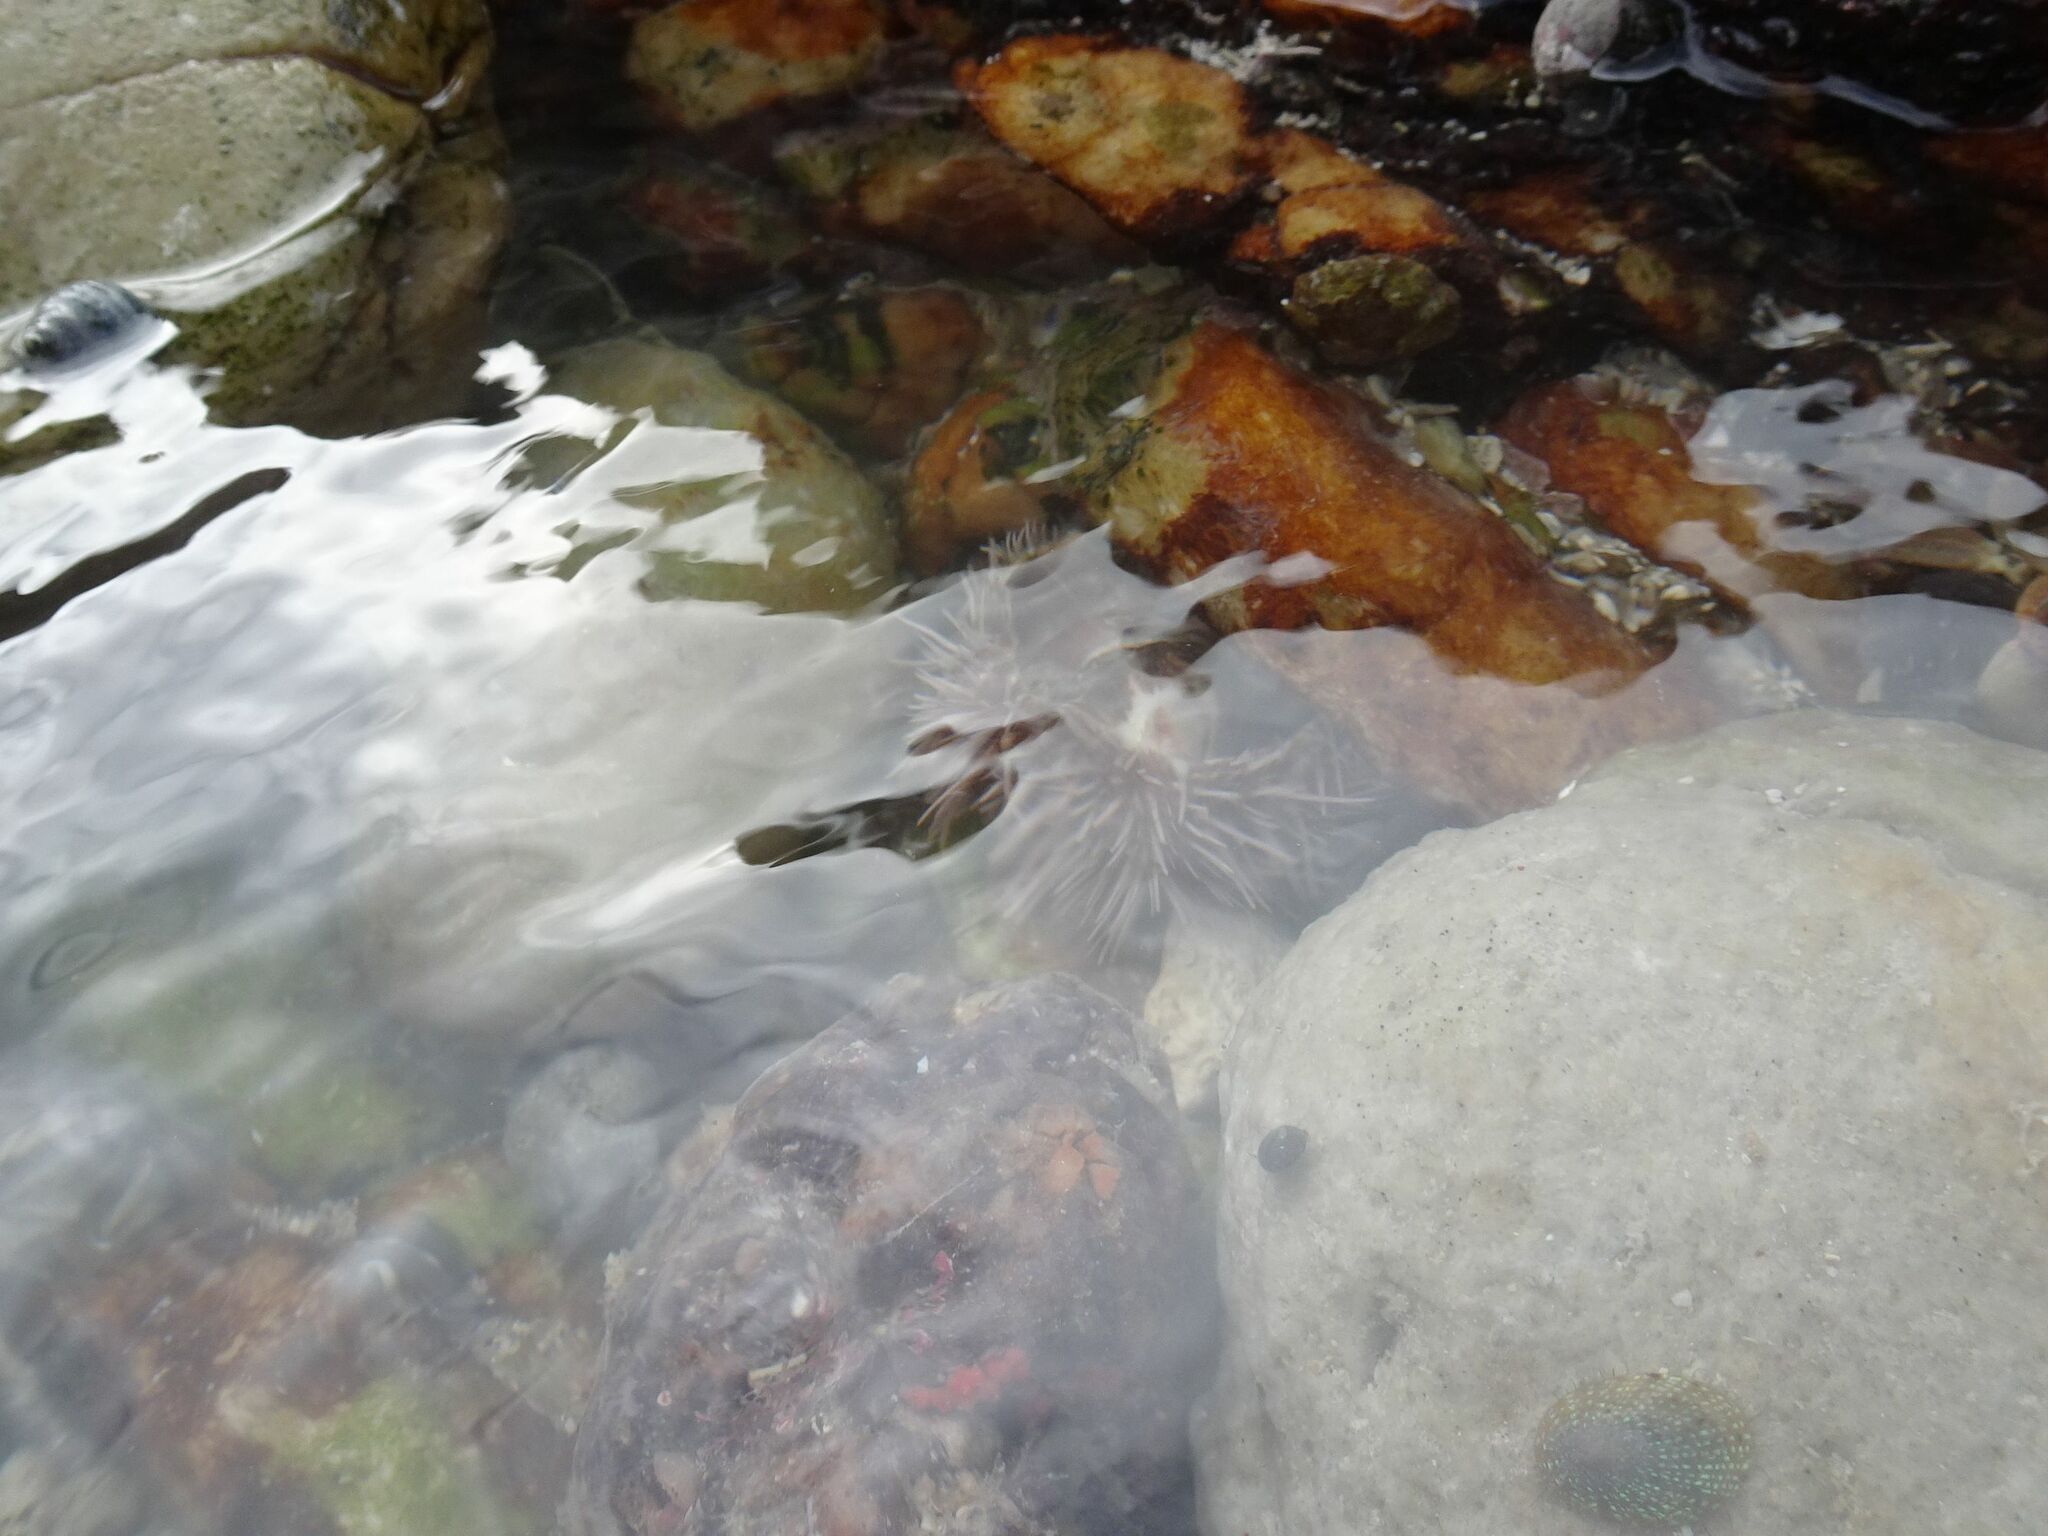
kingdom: Animalia
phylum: Echinodermata
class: Echinoidea
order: Camarodonta
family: Parechinidae
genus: Parechinus
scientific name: Parechinus angulosus
